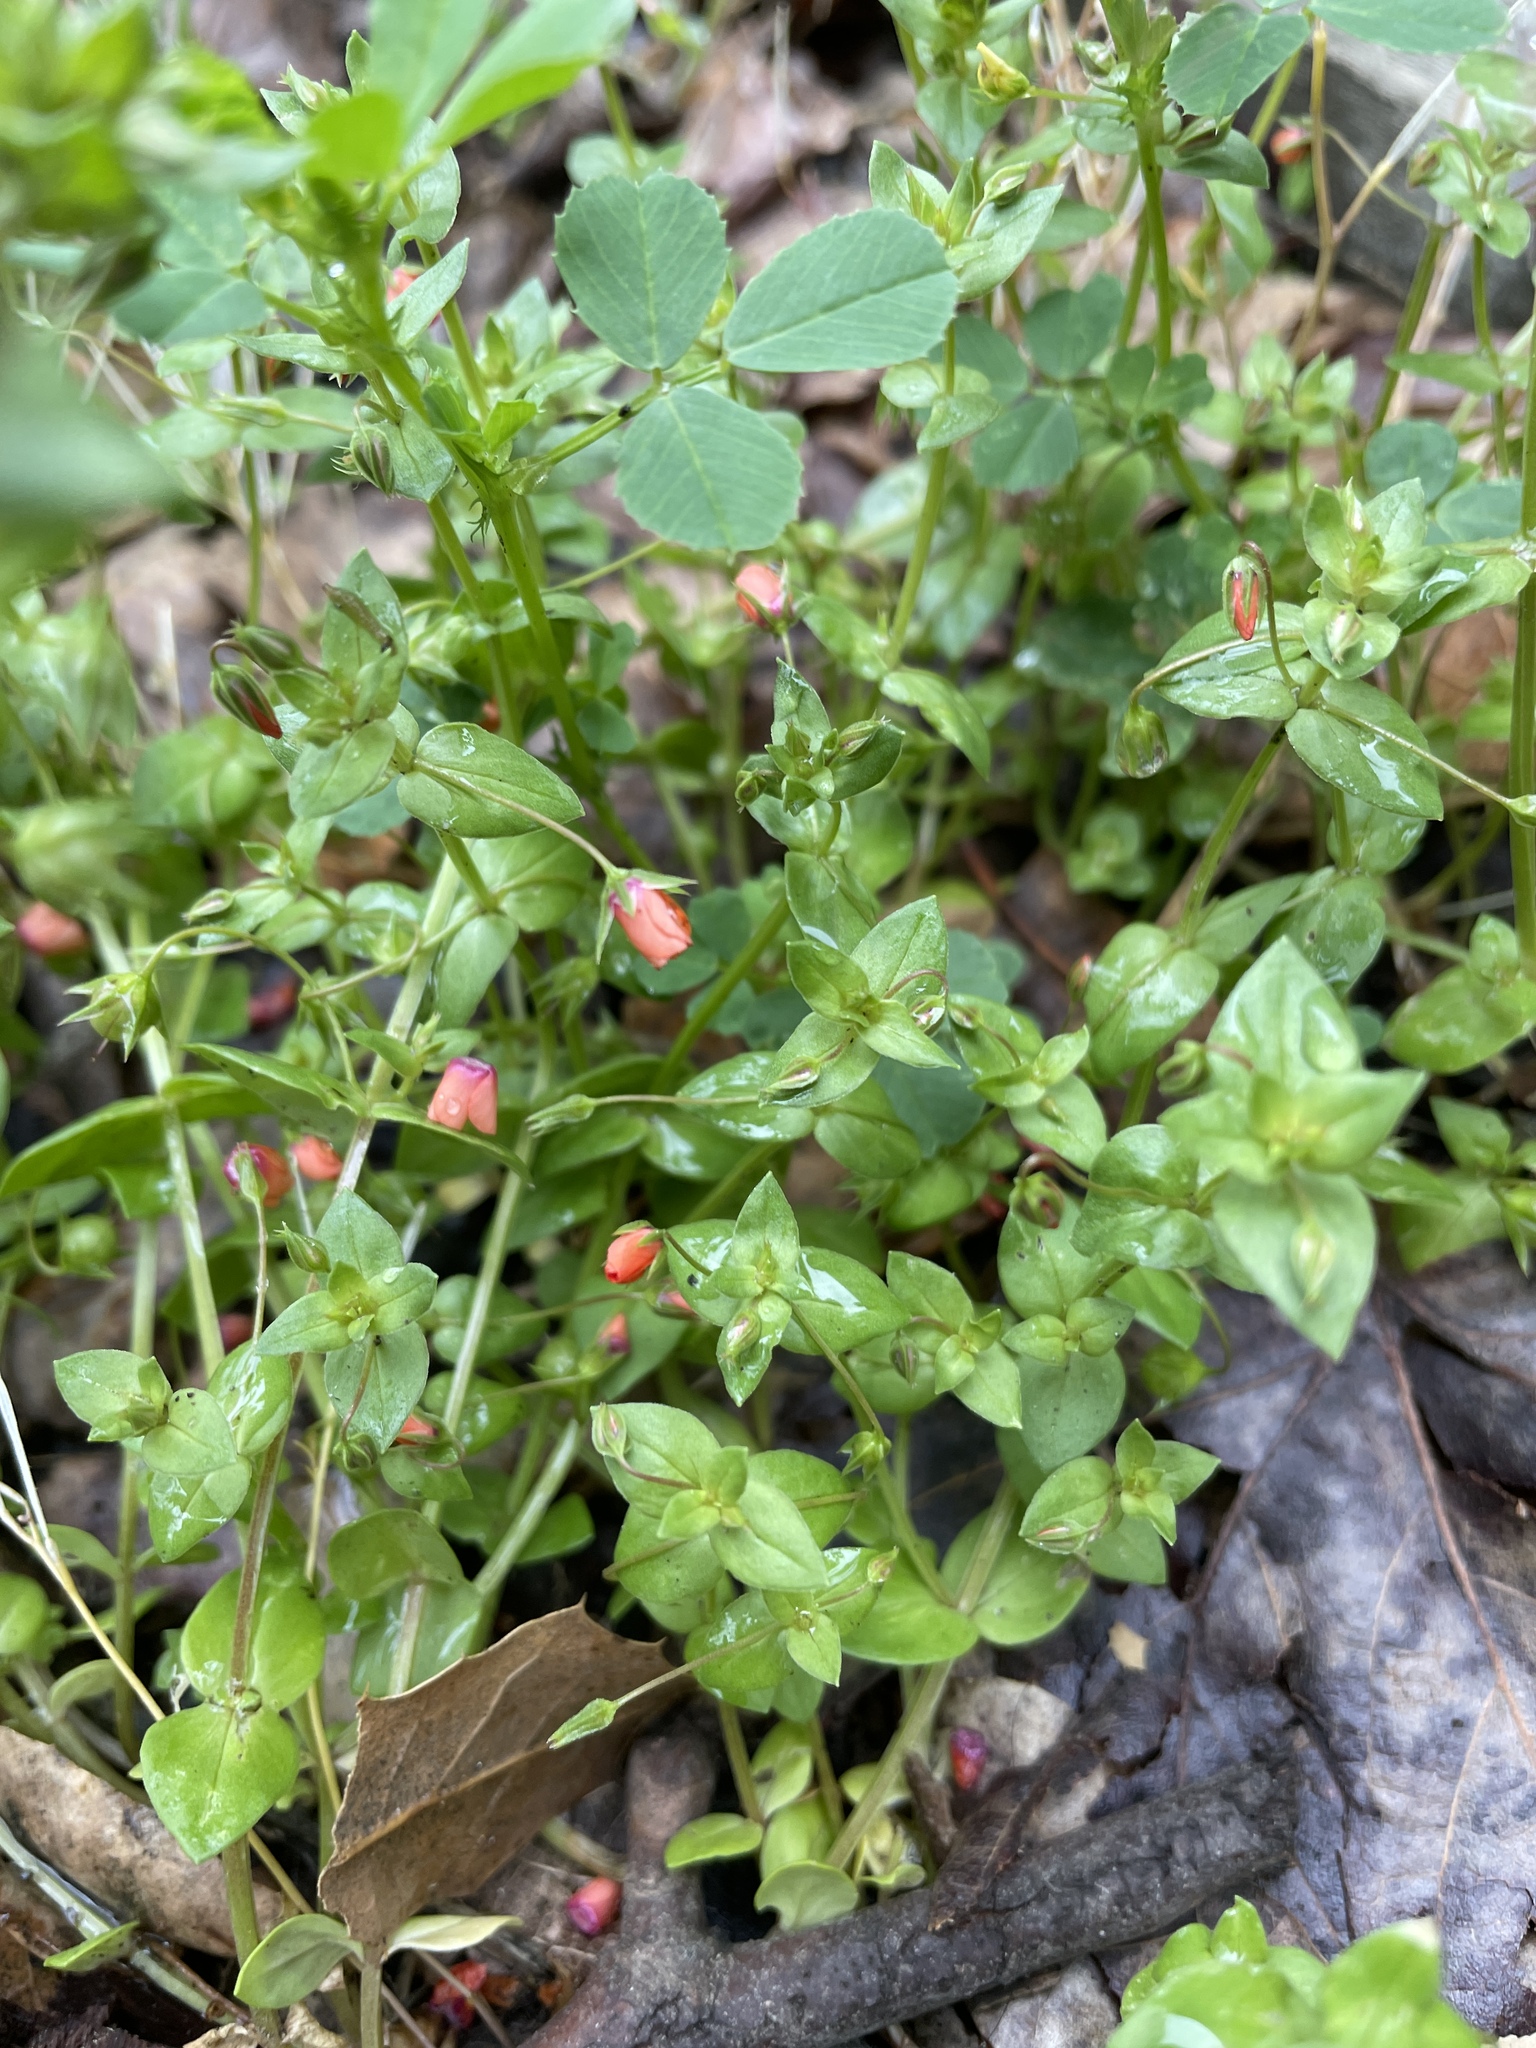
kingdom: Plantae
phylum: Tracheophyta
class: Magnoliopsida
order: Ericales
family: Primulaceae
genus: Lysimachia
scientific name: Lysimachia arvensis
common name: Scarlet pimpernel
